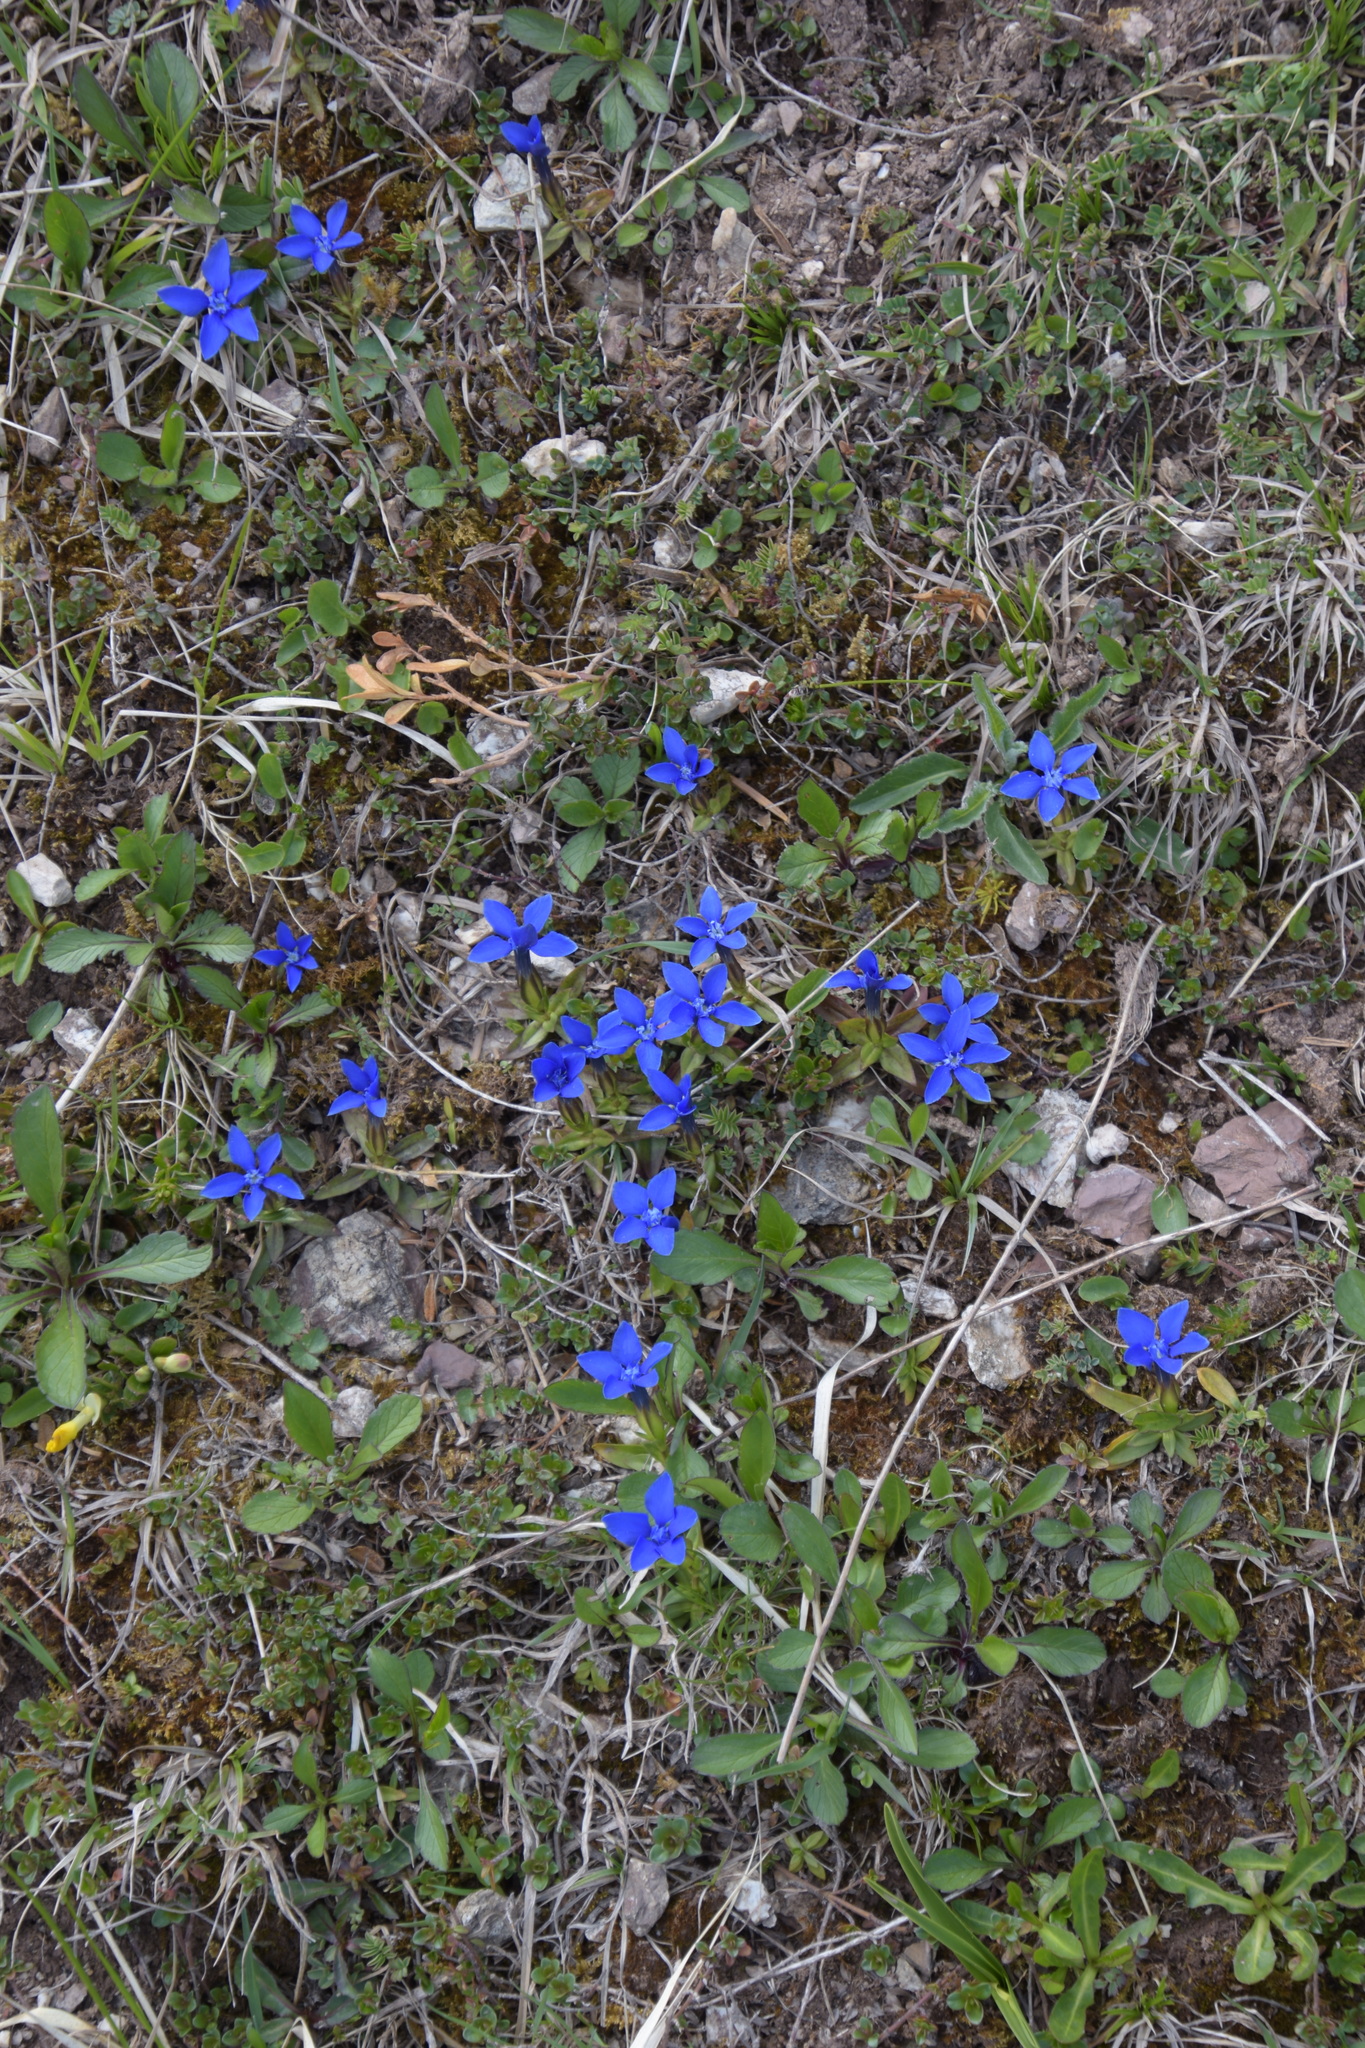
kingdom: Plantae
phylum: Tracheophyta
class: Magnoliopsida
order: Gentianales
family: Gentianaceae
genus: Gentiana
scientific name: Gentiana verna
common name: Spring gentian
